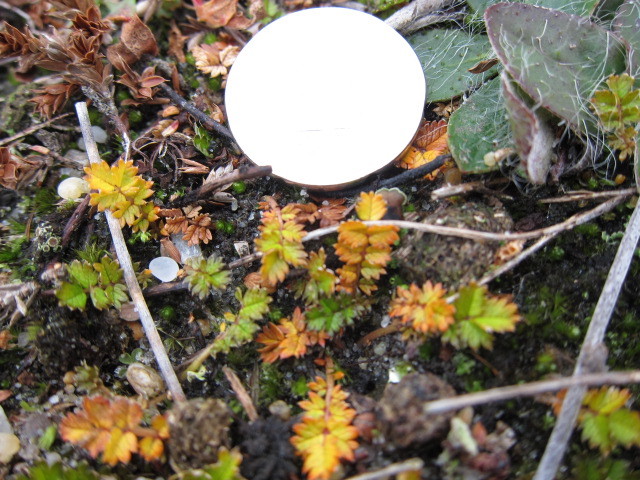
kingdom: Plantae
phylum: Tracheophyta
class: Magnoliopsida
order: Rosales
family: Rosaceae
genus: Acaena
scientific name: Acaena microphylla
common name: New zealand-bur
